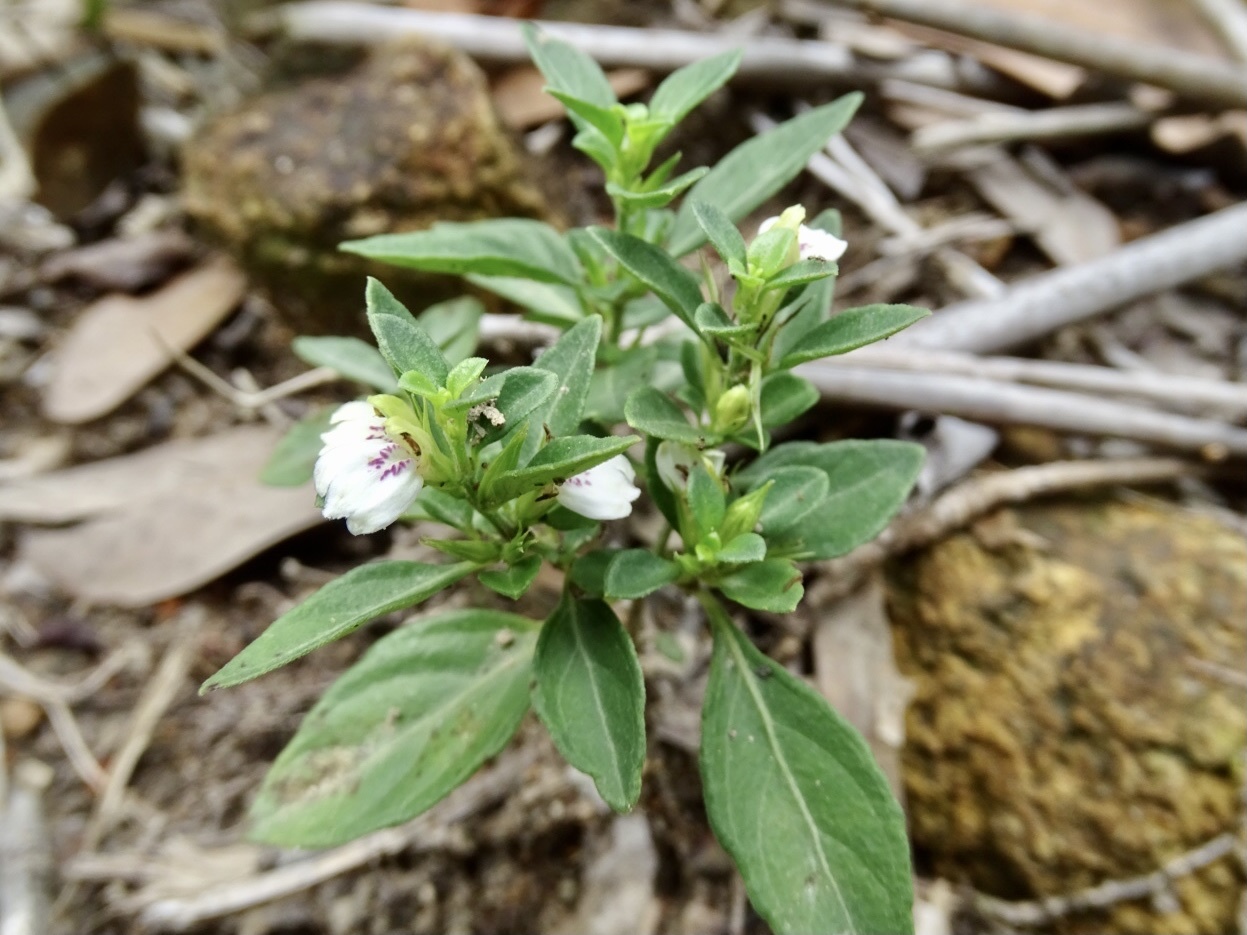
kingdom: Plantae
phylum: Tracheophyta
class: Magnoliopsida
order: Lamiales
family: Acanthaceae
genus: Justicia
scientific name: Justicia championii
